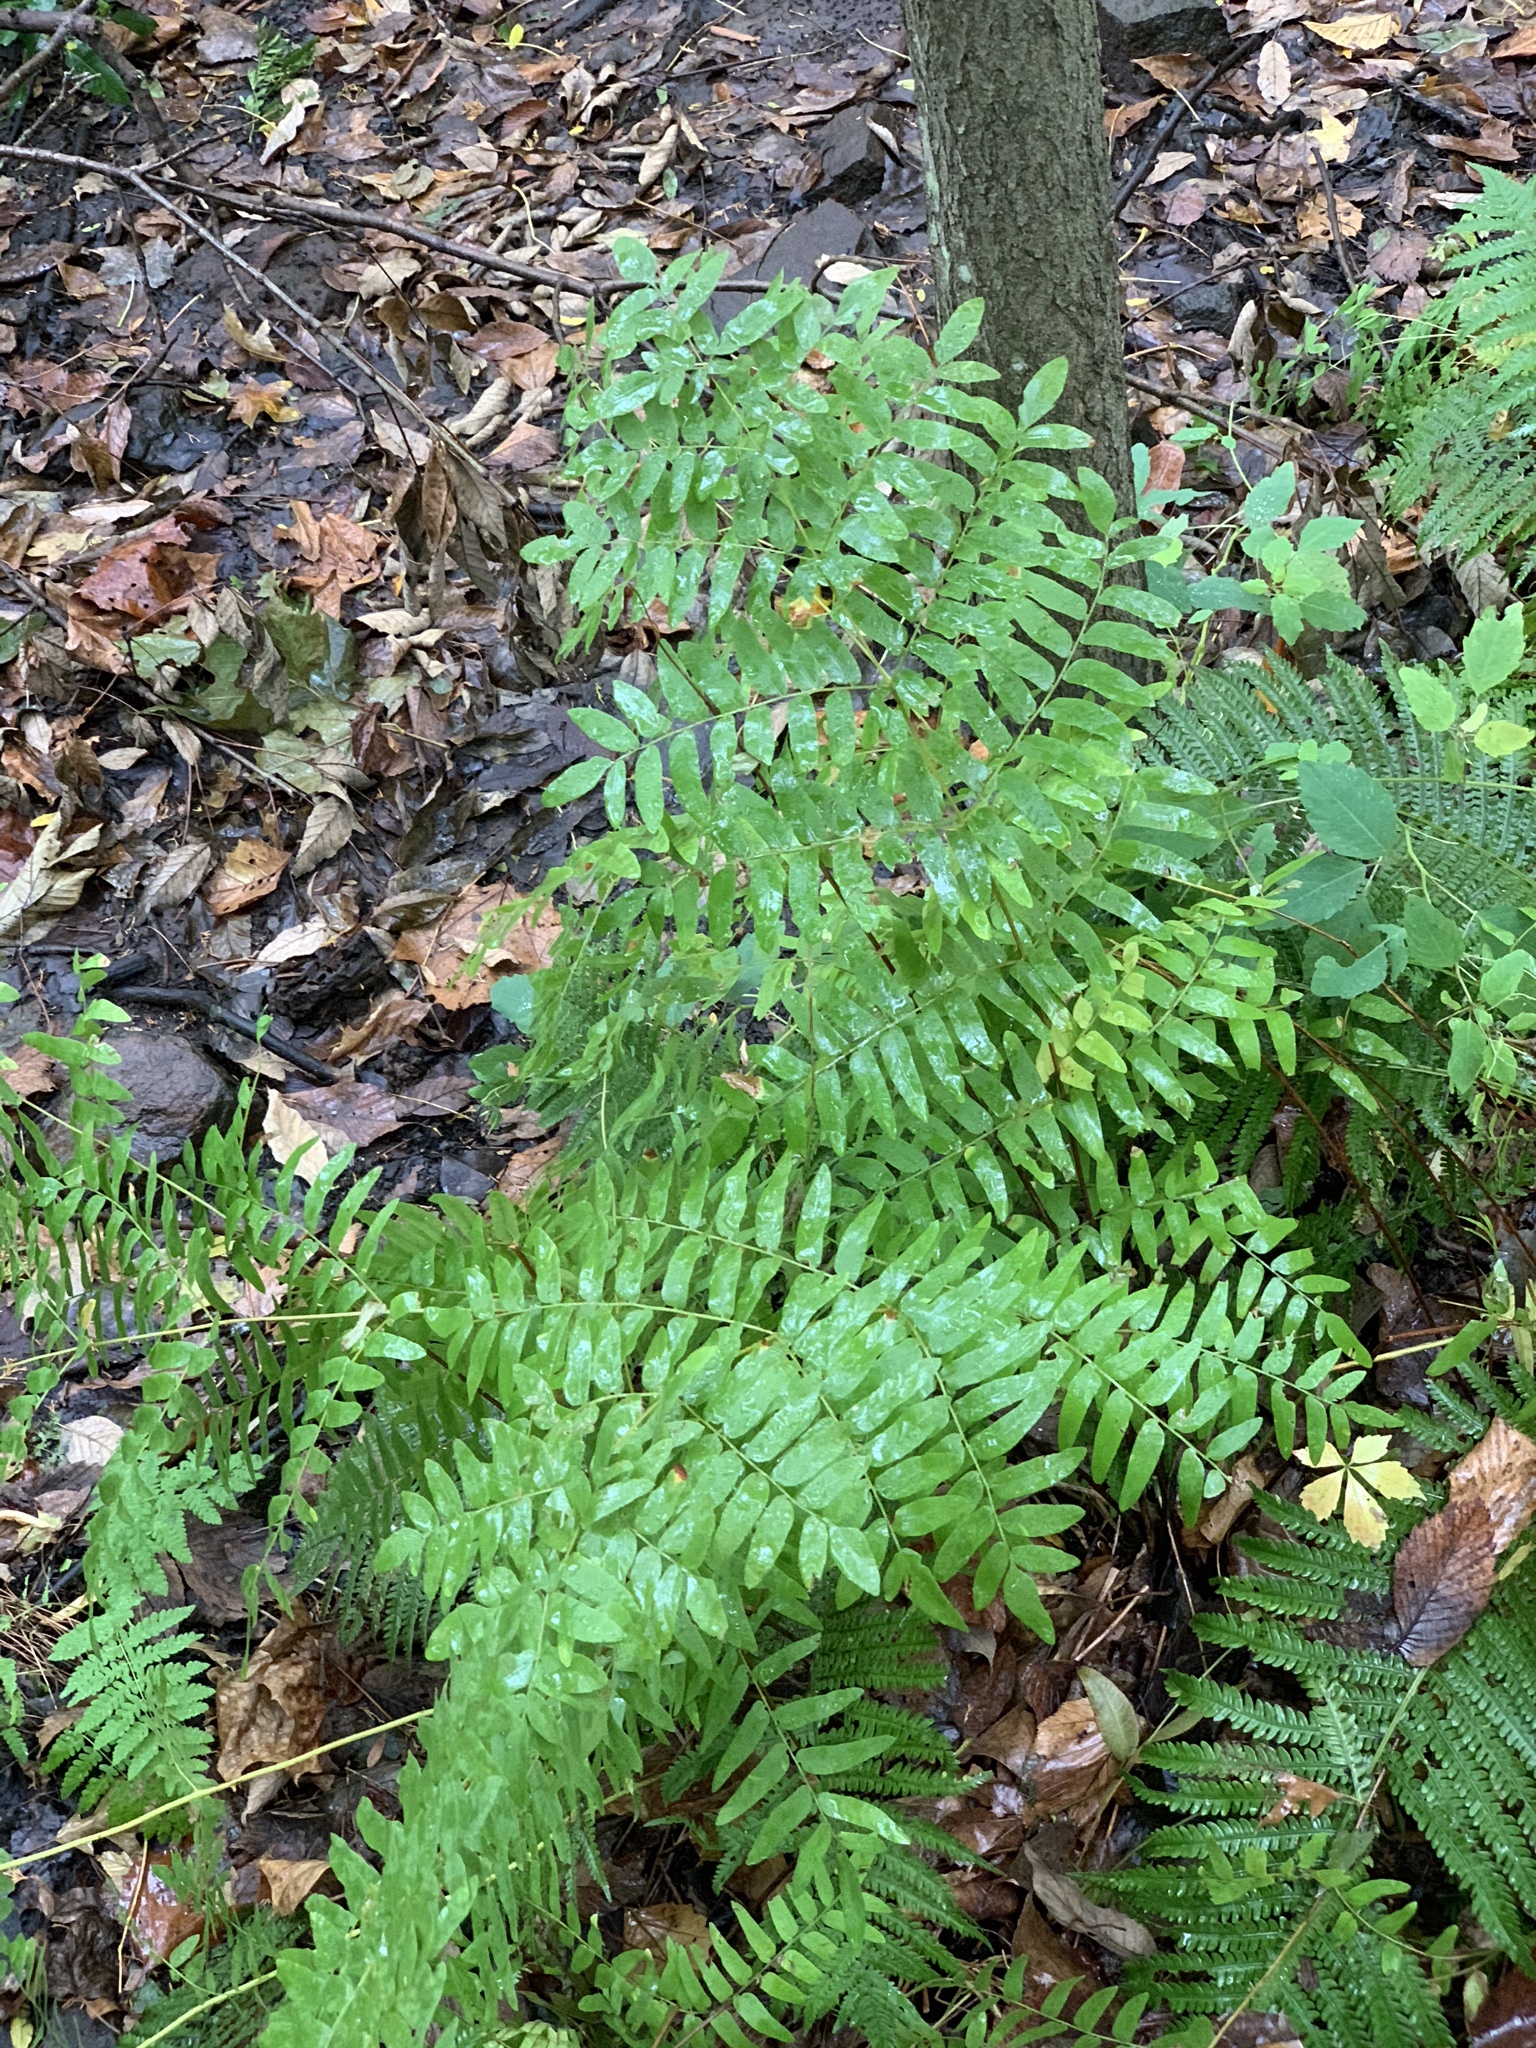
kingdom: Plantae
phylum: Tracheophyta
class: Polypodiopsida
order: Osmundales
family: Osmundaceae
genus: Osmunda
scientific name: Osmunda spectabilis
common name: American royal fern
